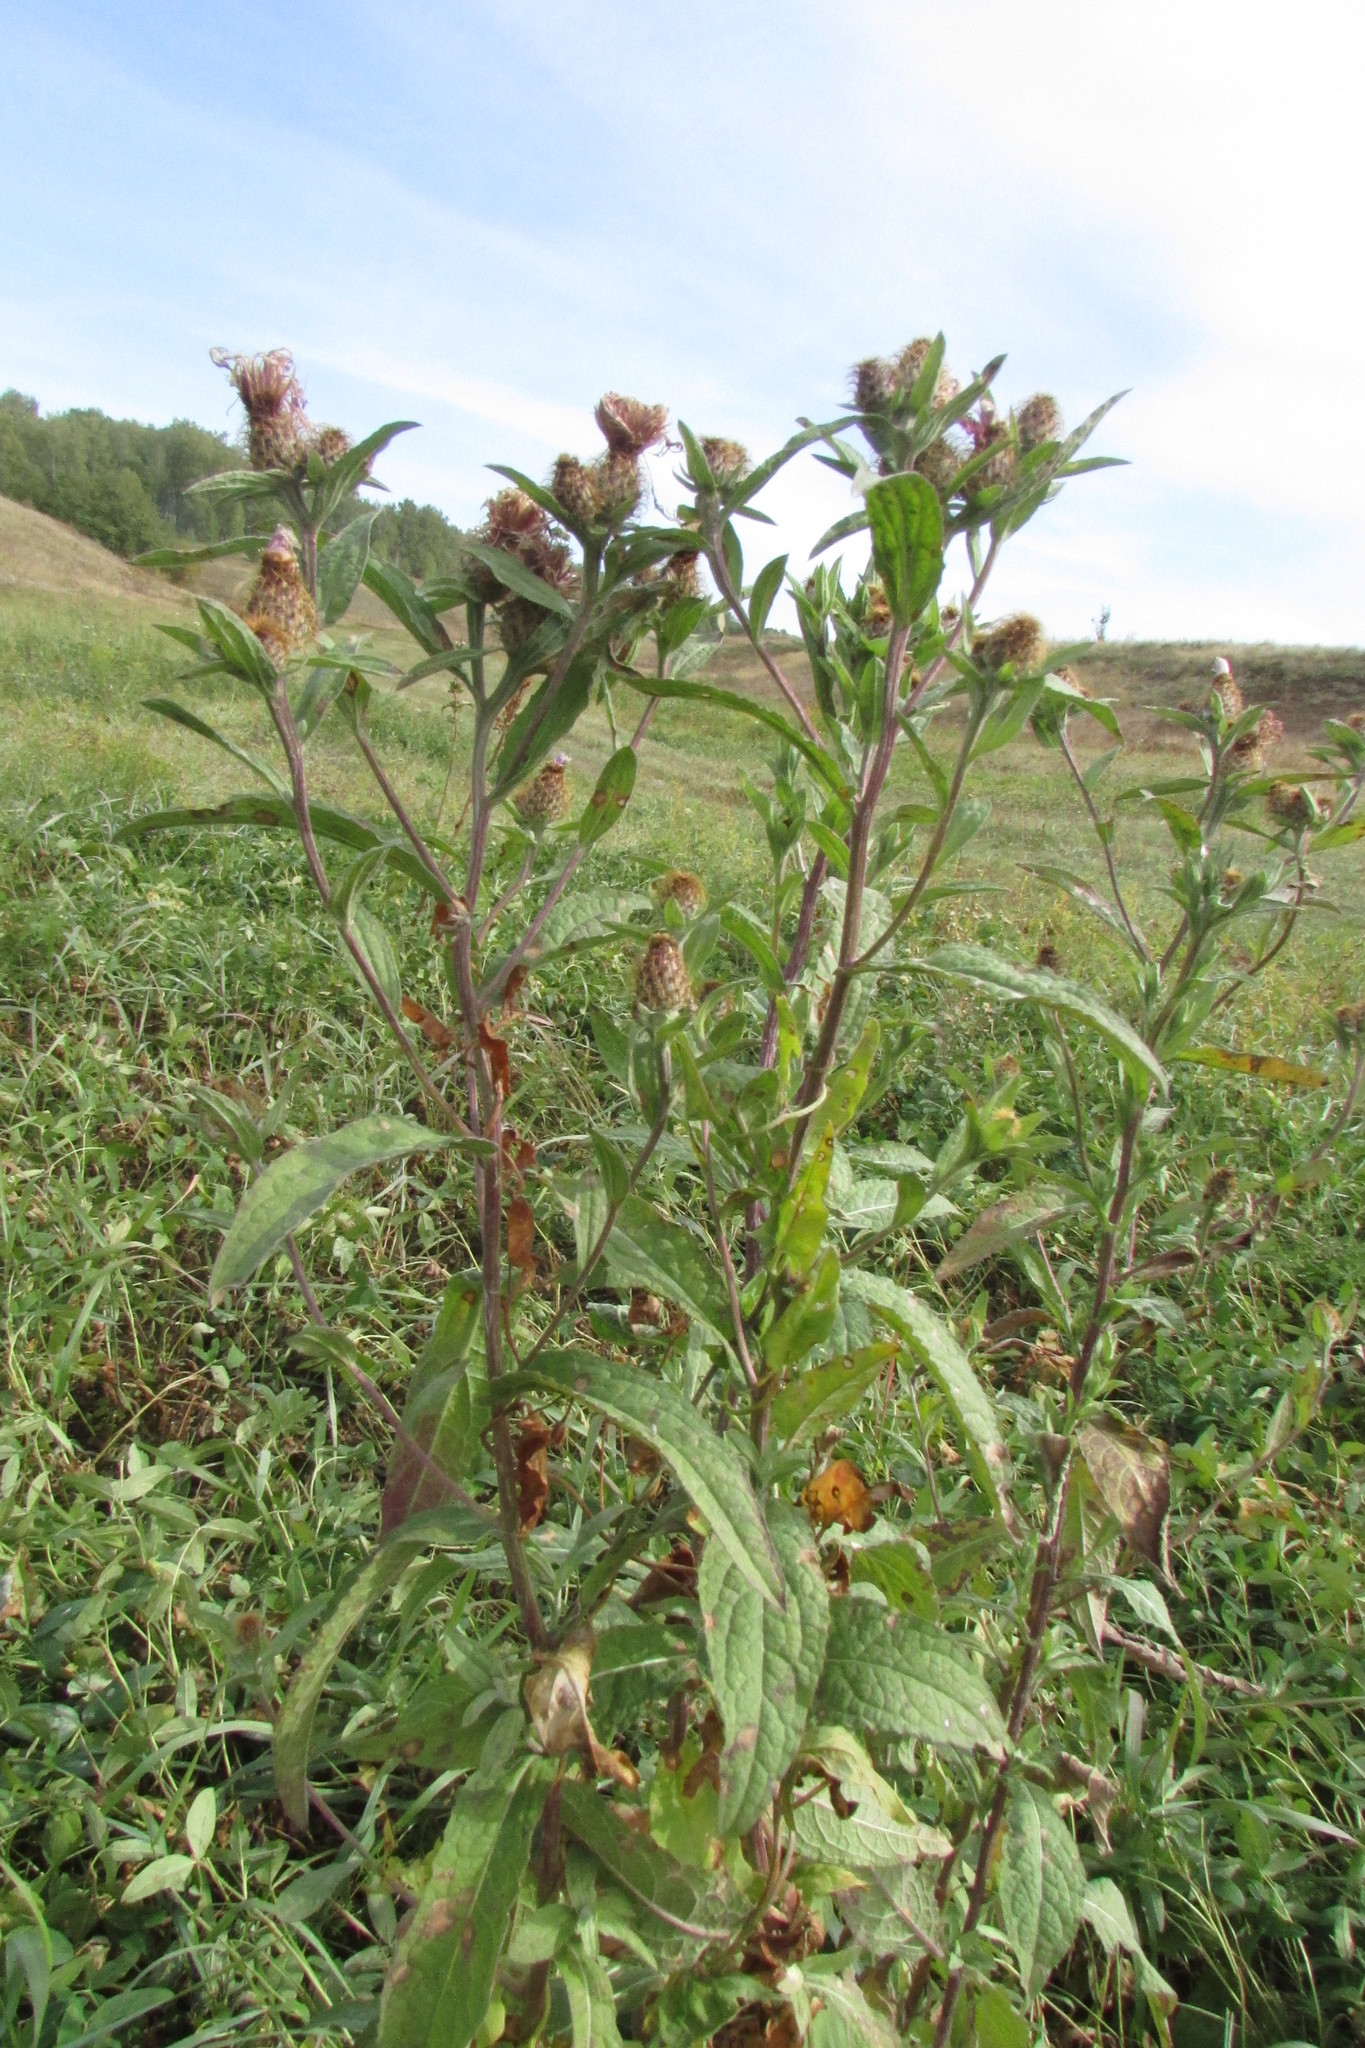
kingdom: Plantae
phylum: Tracheophyta
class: Magnoliopsida
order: Asterales
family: Asteraceae
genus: Centaurea
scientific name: Centaurea pseudophrygia
